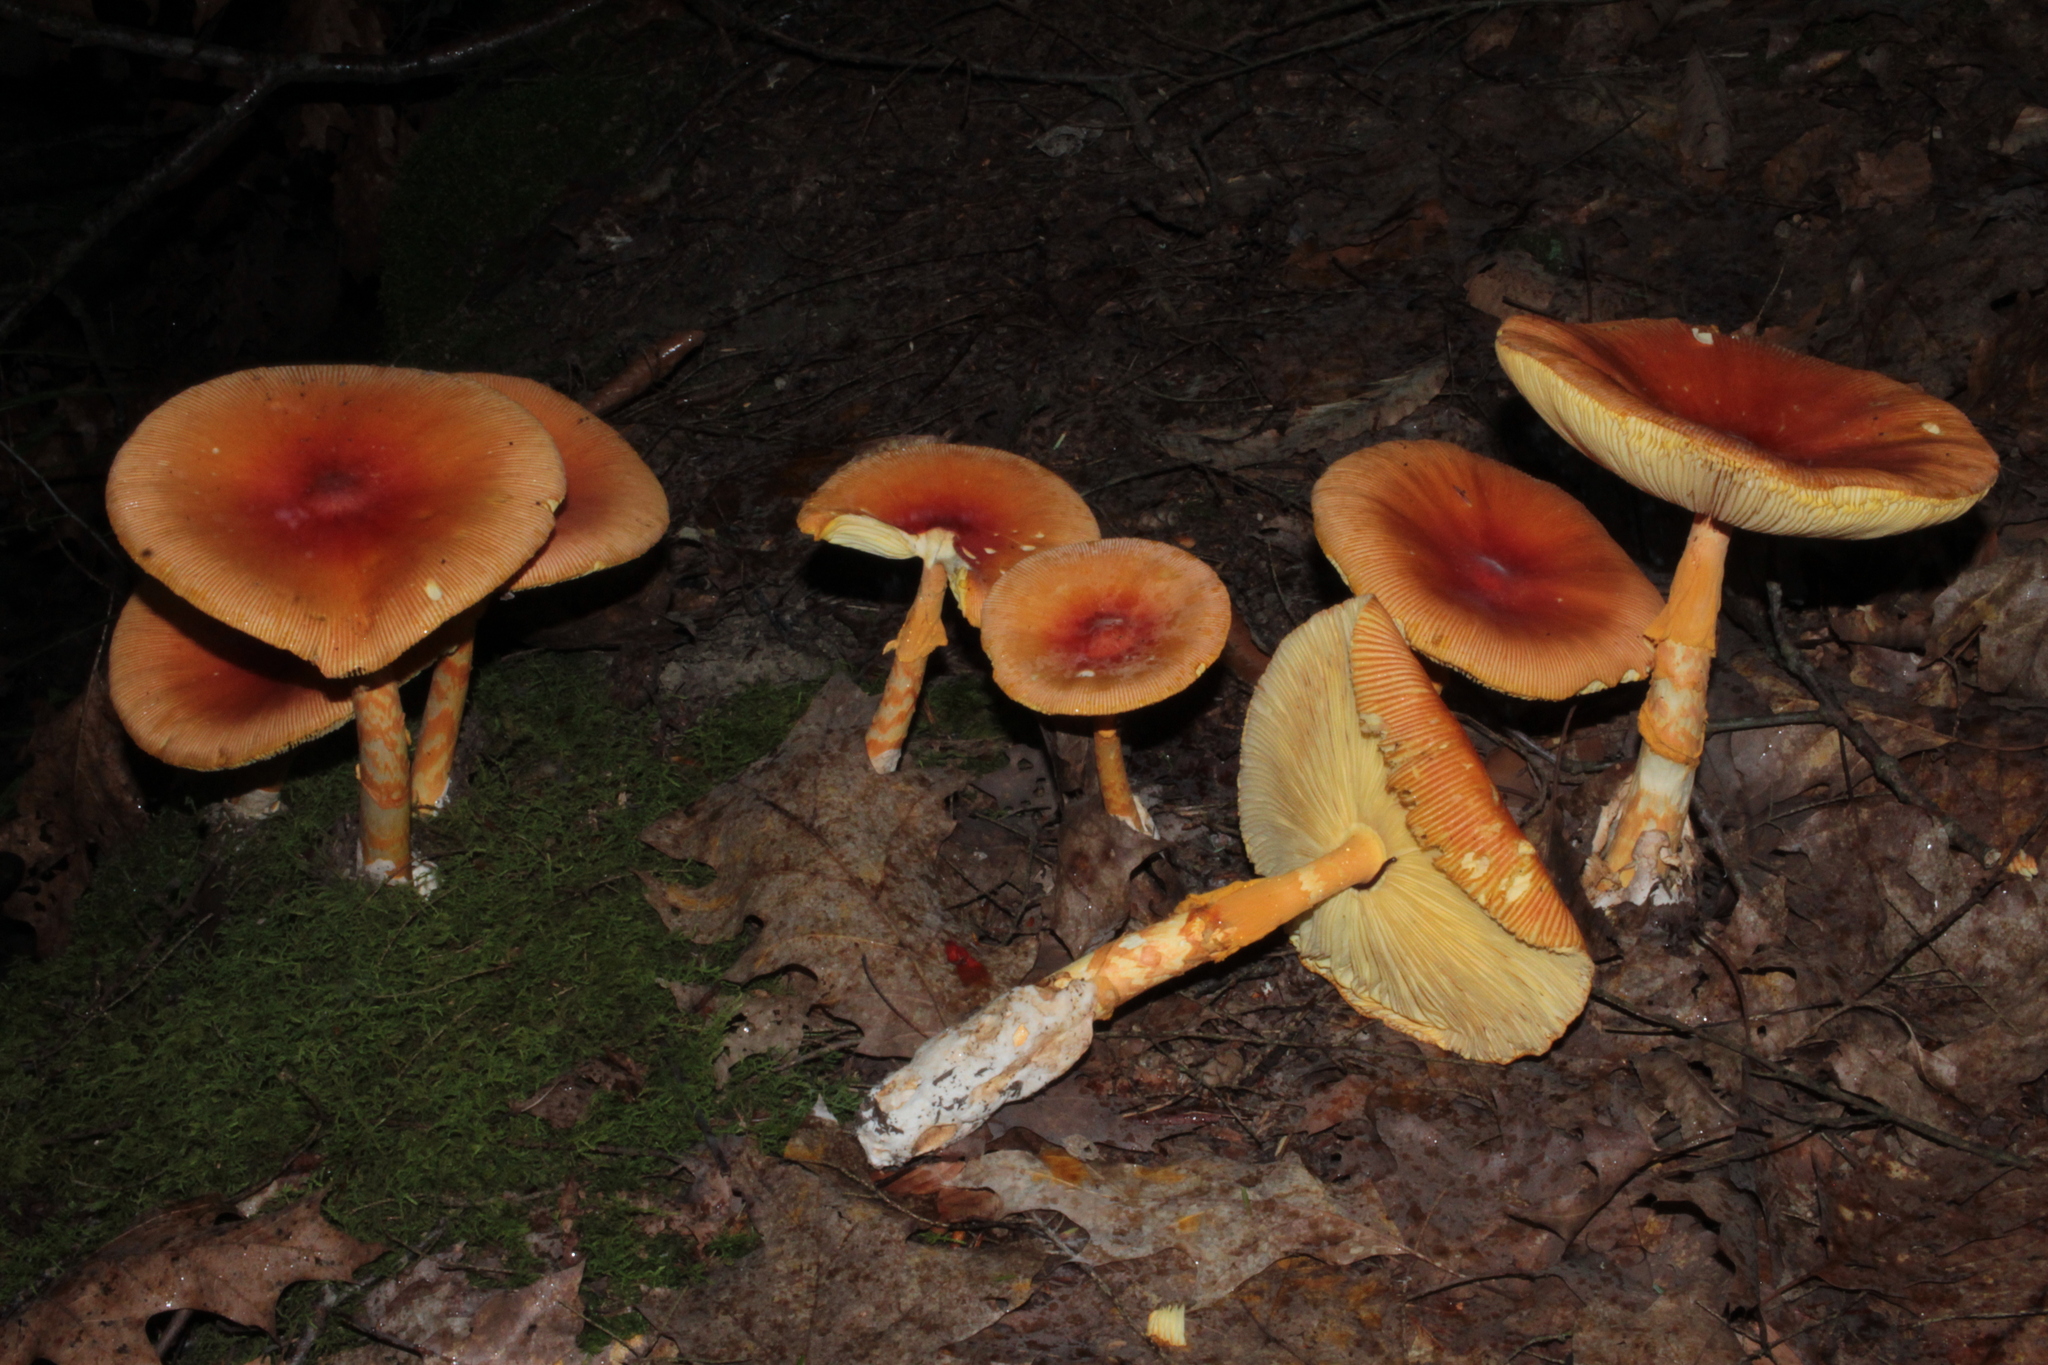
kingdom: Fungi
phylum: Basidiomycota
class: Agaricomycetes
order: Agaricales
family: Amanitaceae
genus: Amanita
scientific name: Amanita jacksonii
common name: Jackson's slender caesar
